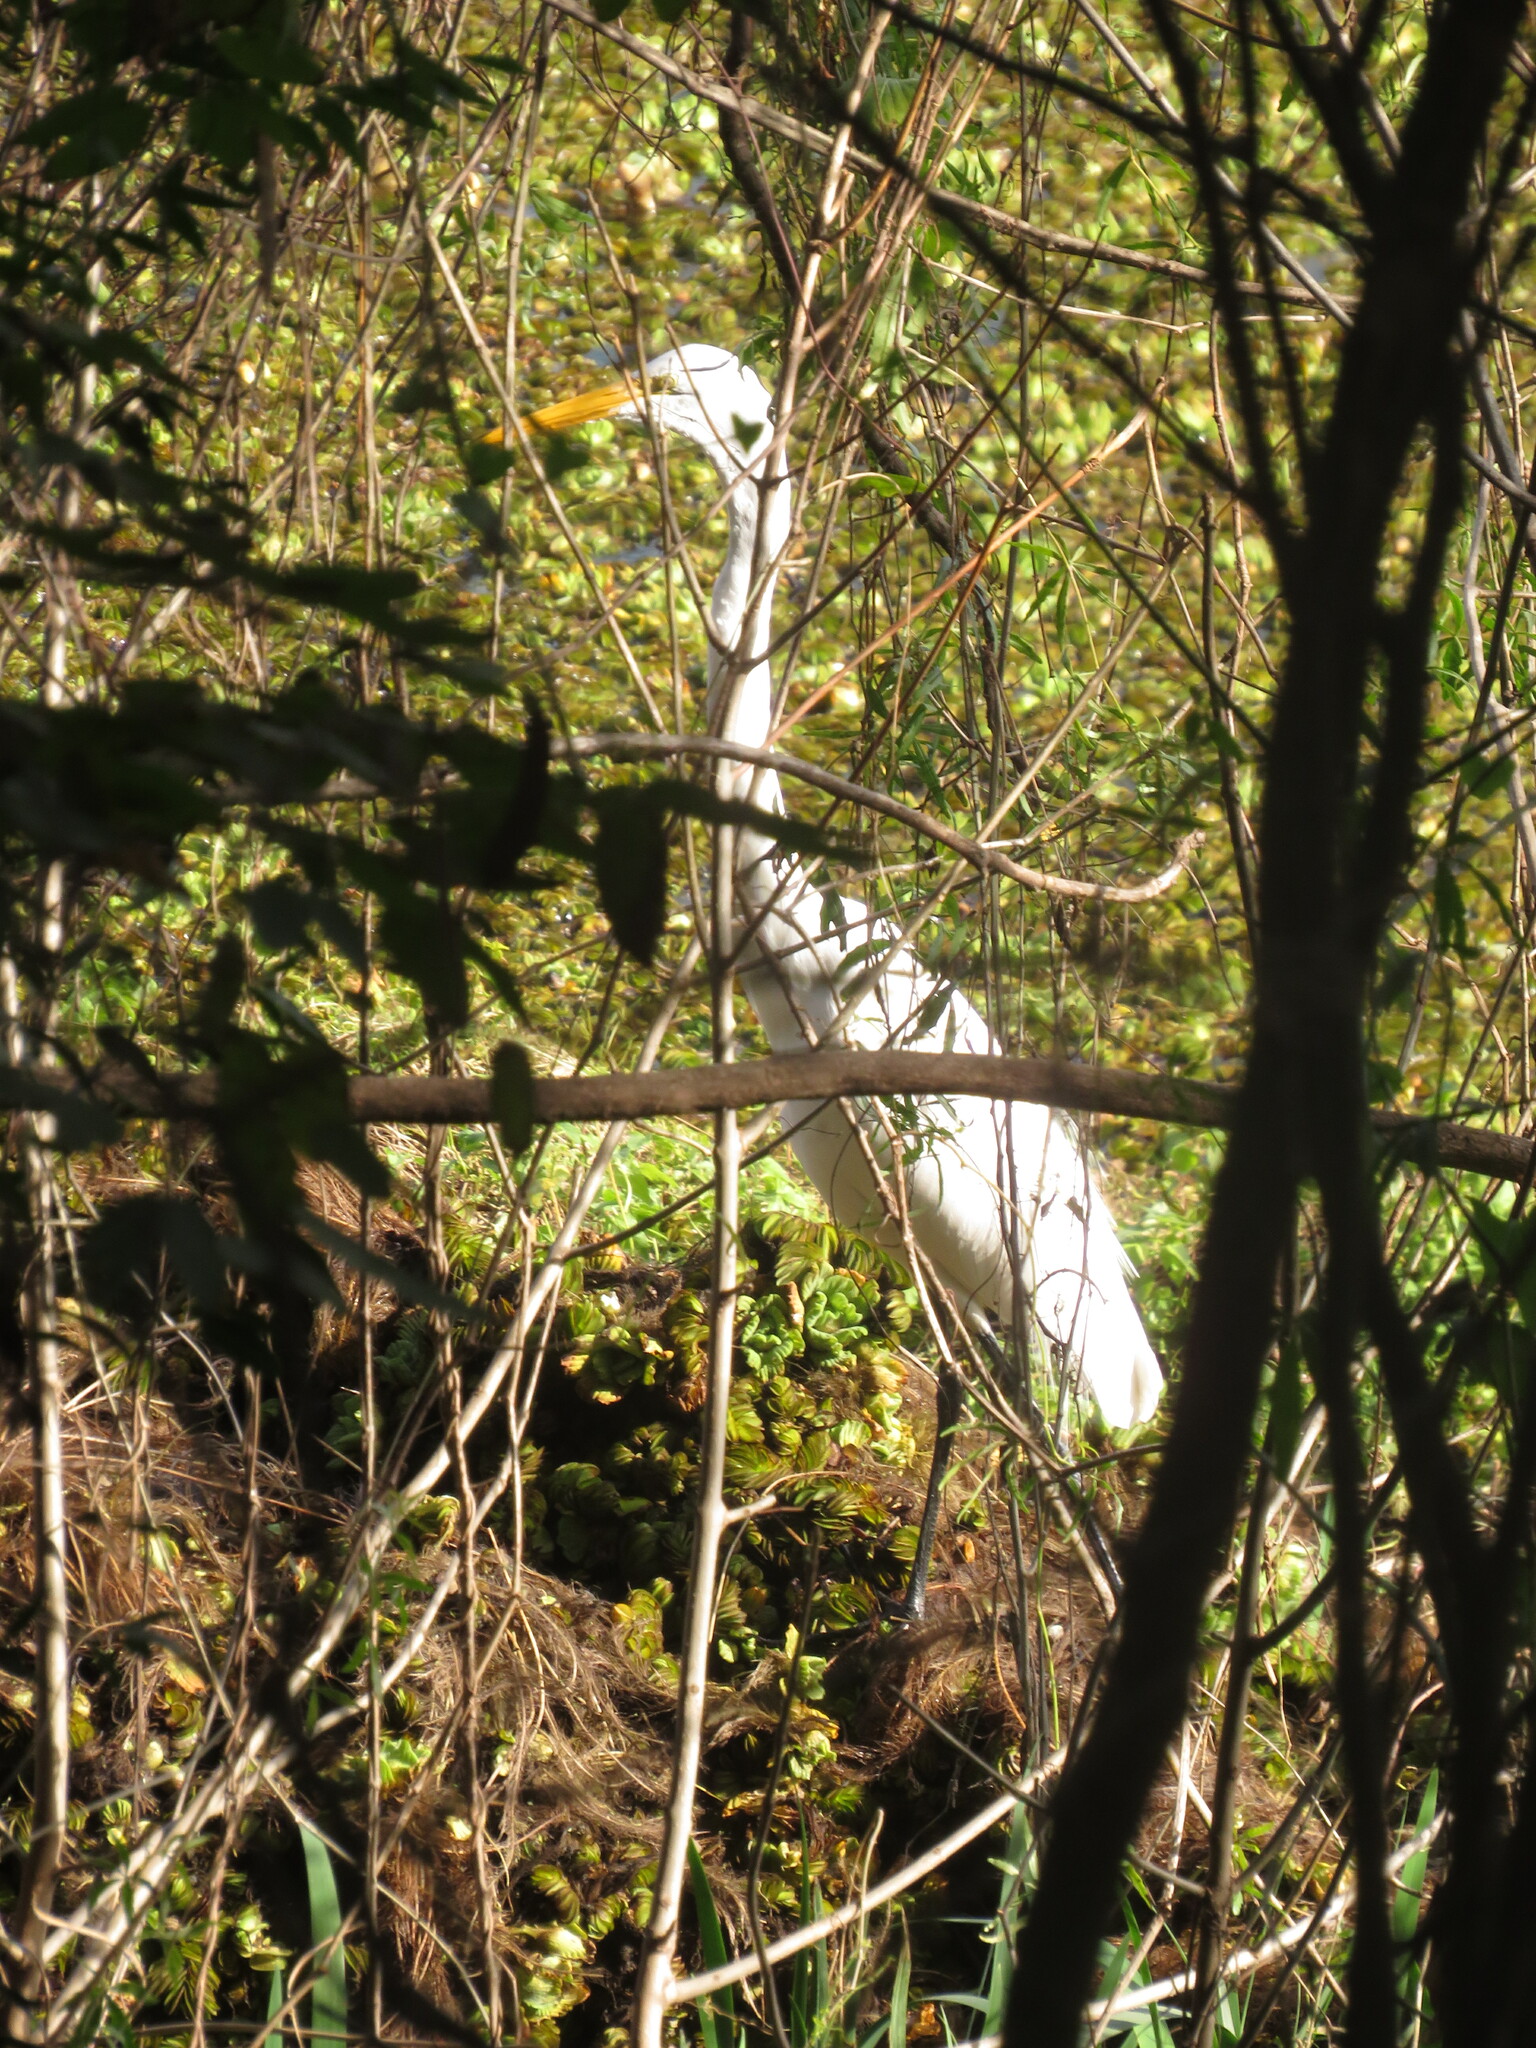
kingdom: Animalia
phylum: Chordata
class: Aves
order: Pelecaniformes
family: Ardeidae
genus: Ardea
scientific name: Ardea alba
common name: Great egret
